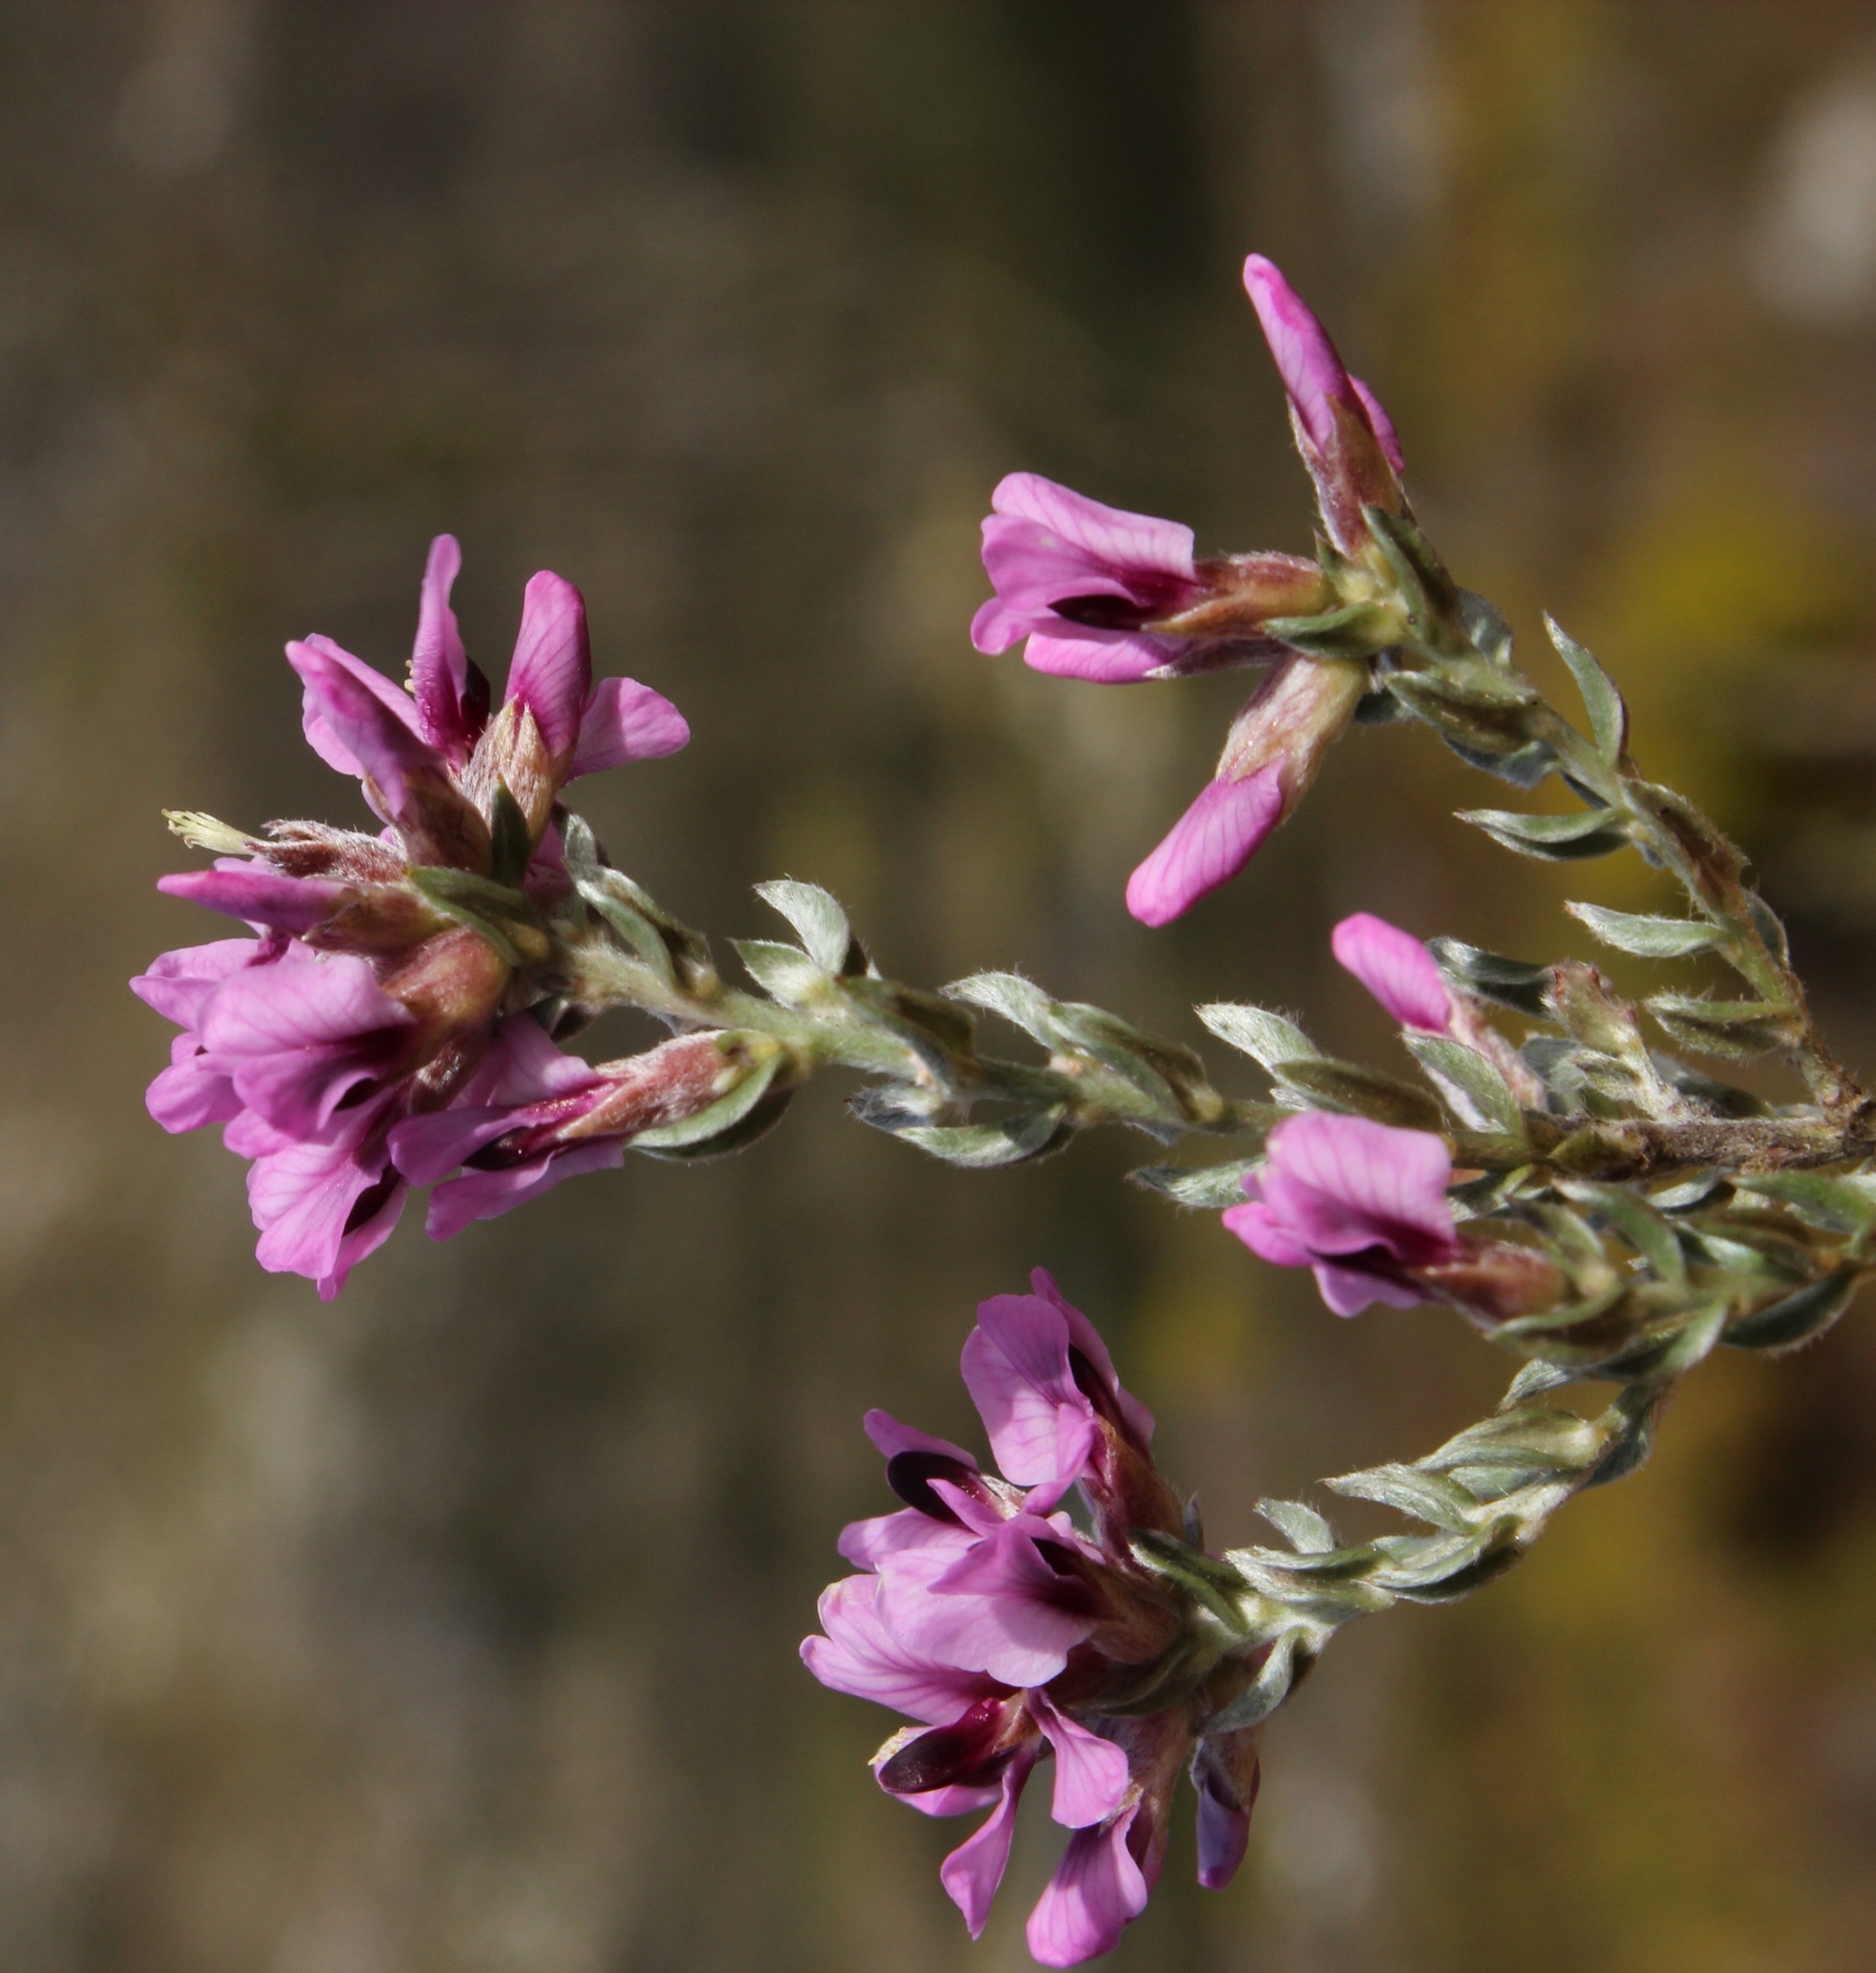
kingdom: Plantae
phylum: Tracheophyta
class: Magnoliopsida
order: Fabales
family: Fabaceae
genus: Amphithalea
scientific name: Amphithalea ericifolia
